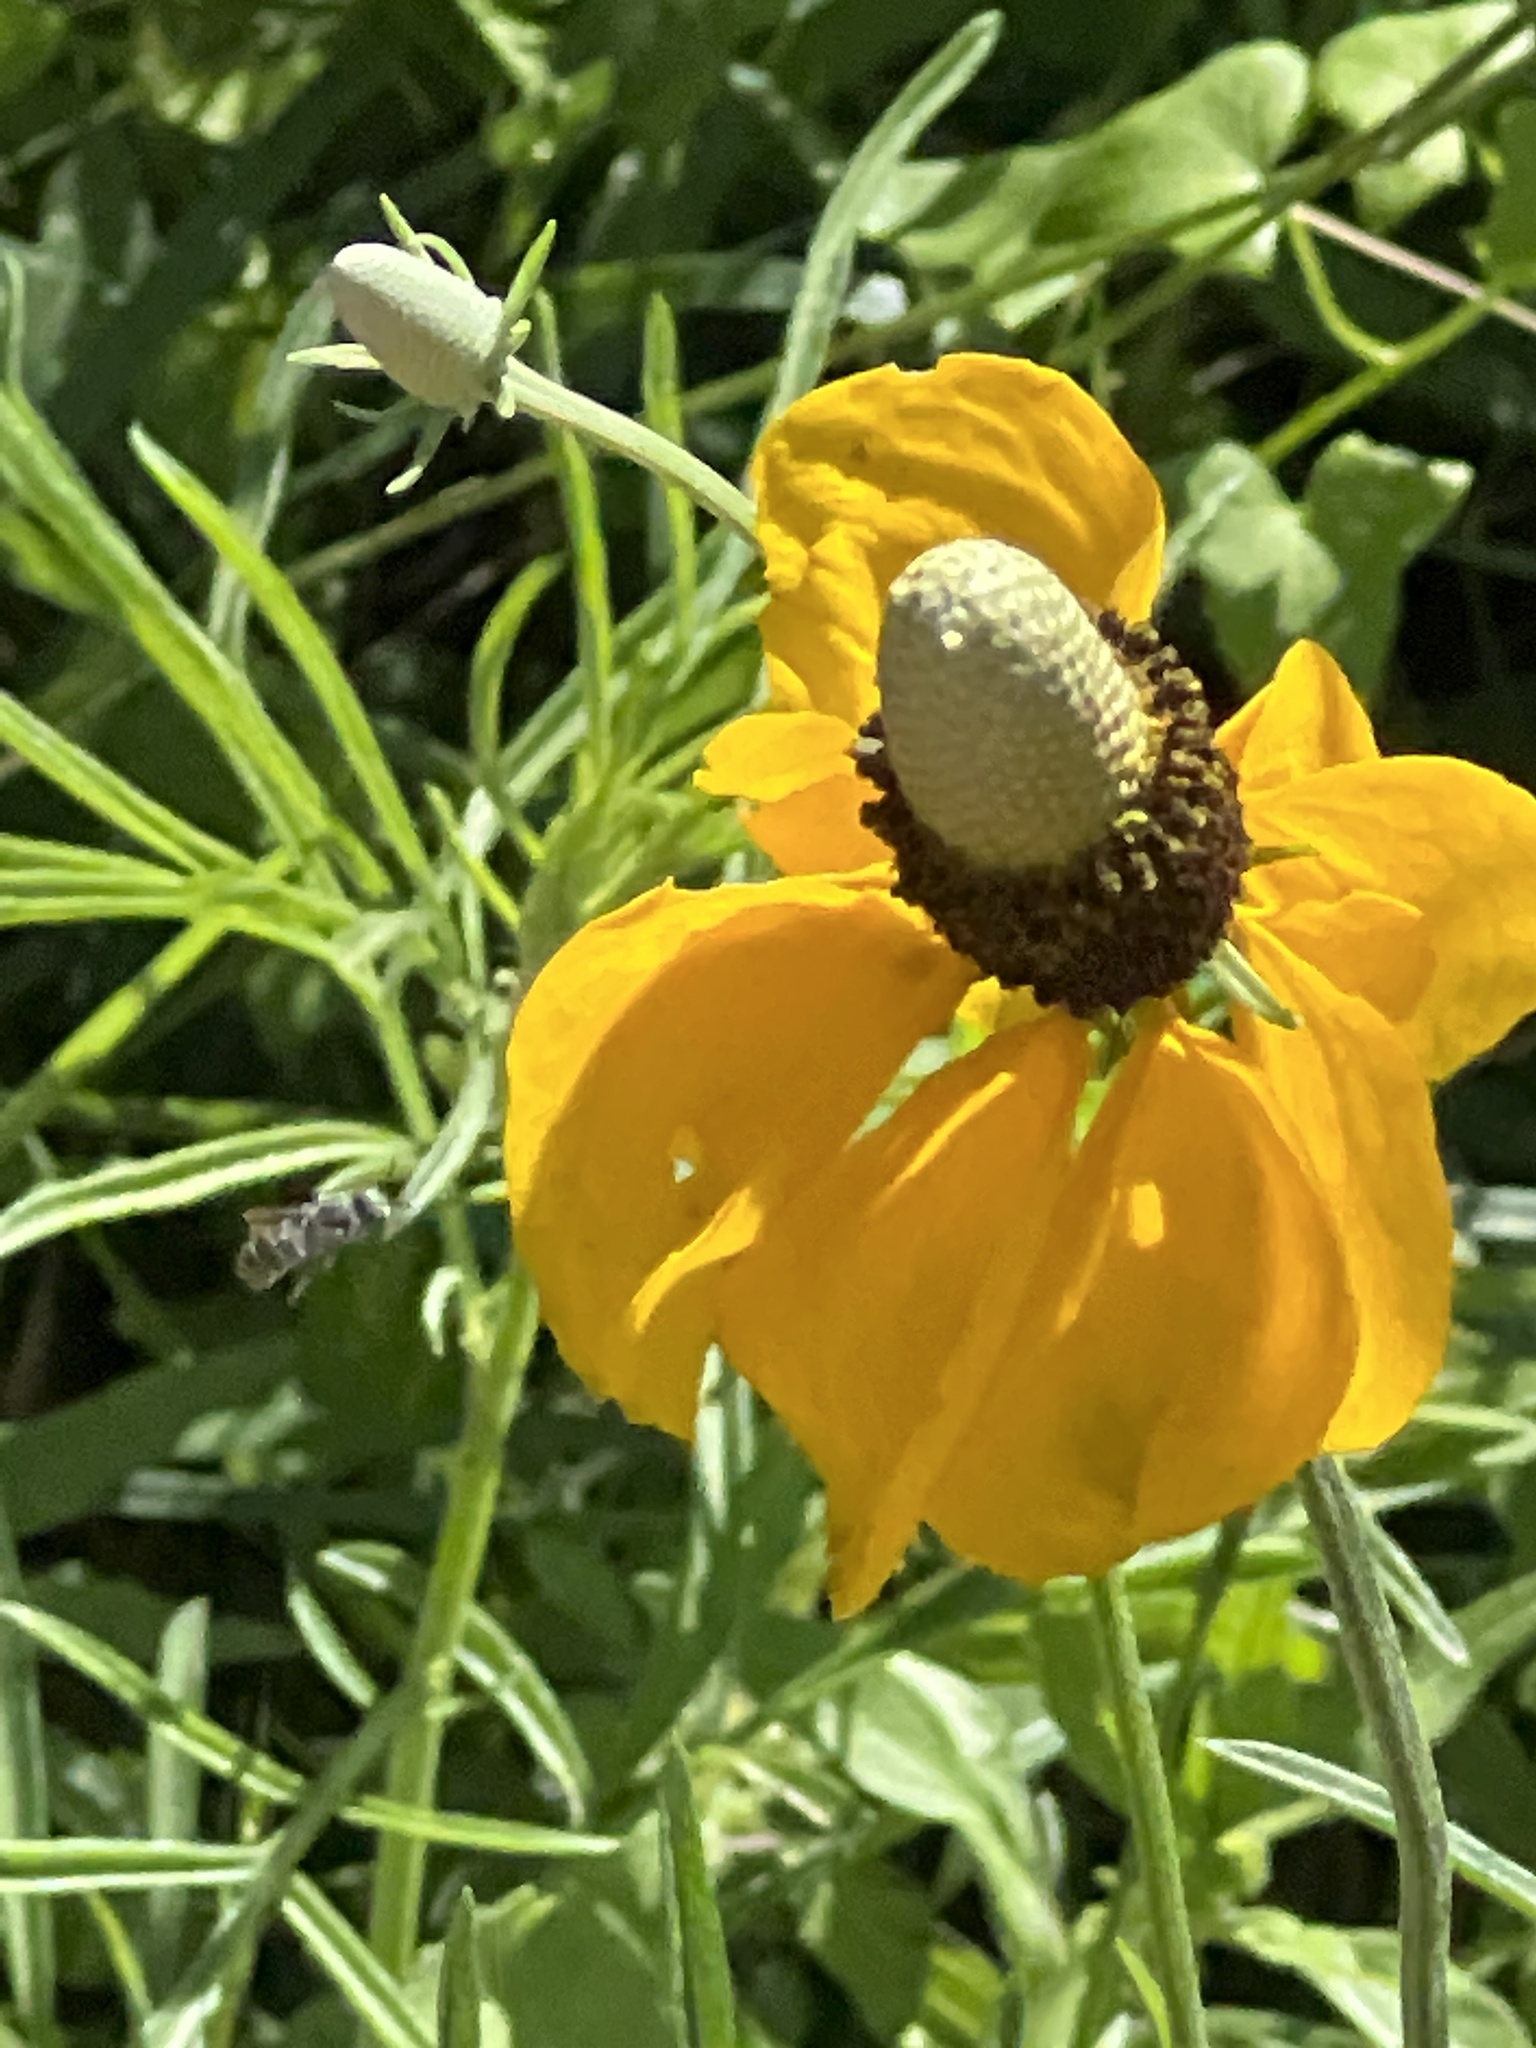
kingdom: Plantae
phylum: Tracheophyta
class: Magnoliopsida
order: Asterales
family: Asteraceae
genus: Ratibida
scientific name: Ratibida columnifera
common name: Prairie coneflower
